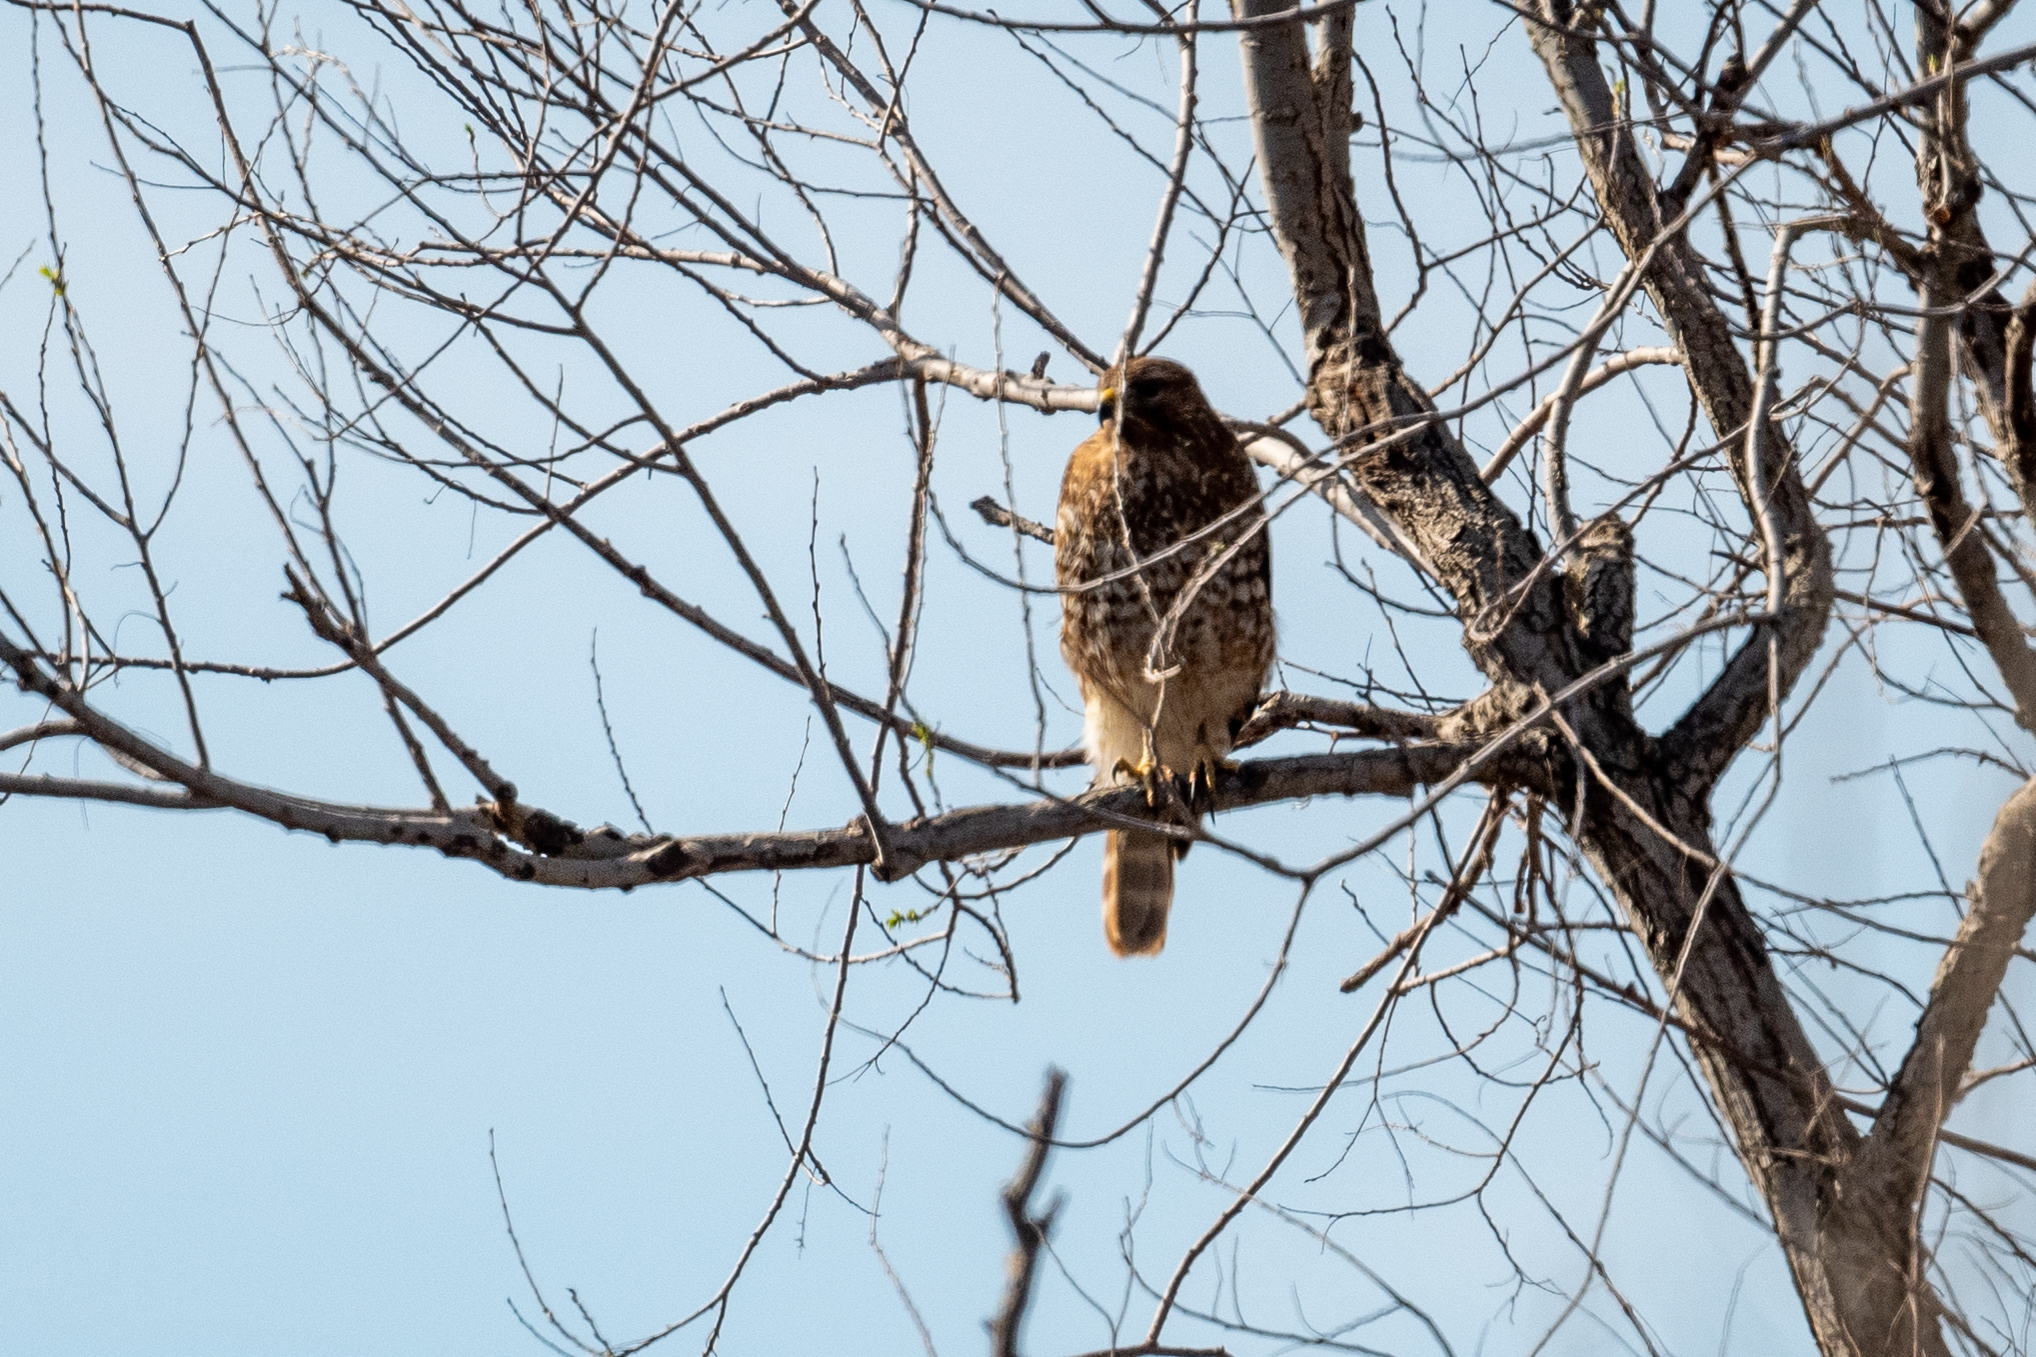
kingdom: Animalia
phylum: Chordata
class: Aves
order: Accipitriformes
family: Accipitridae
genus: Buteo
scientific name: Buteo lineatus
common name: Red-shouldered hawk
